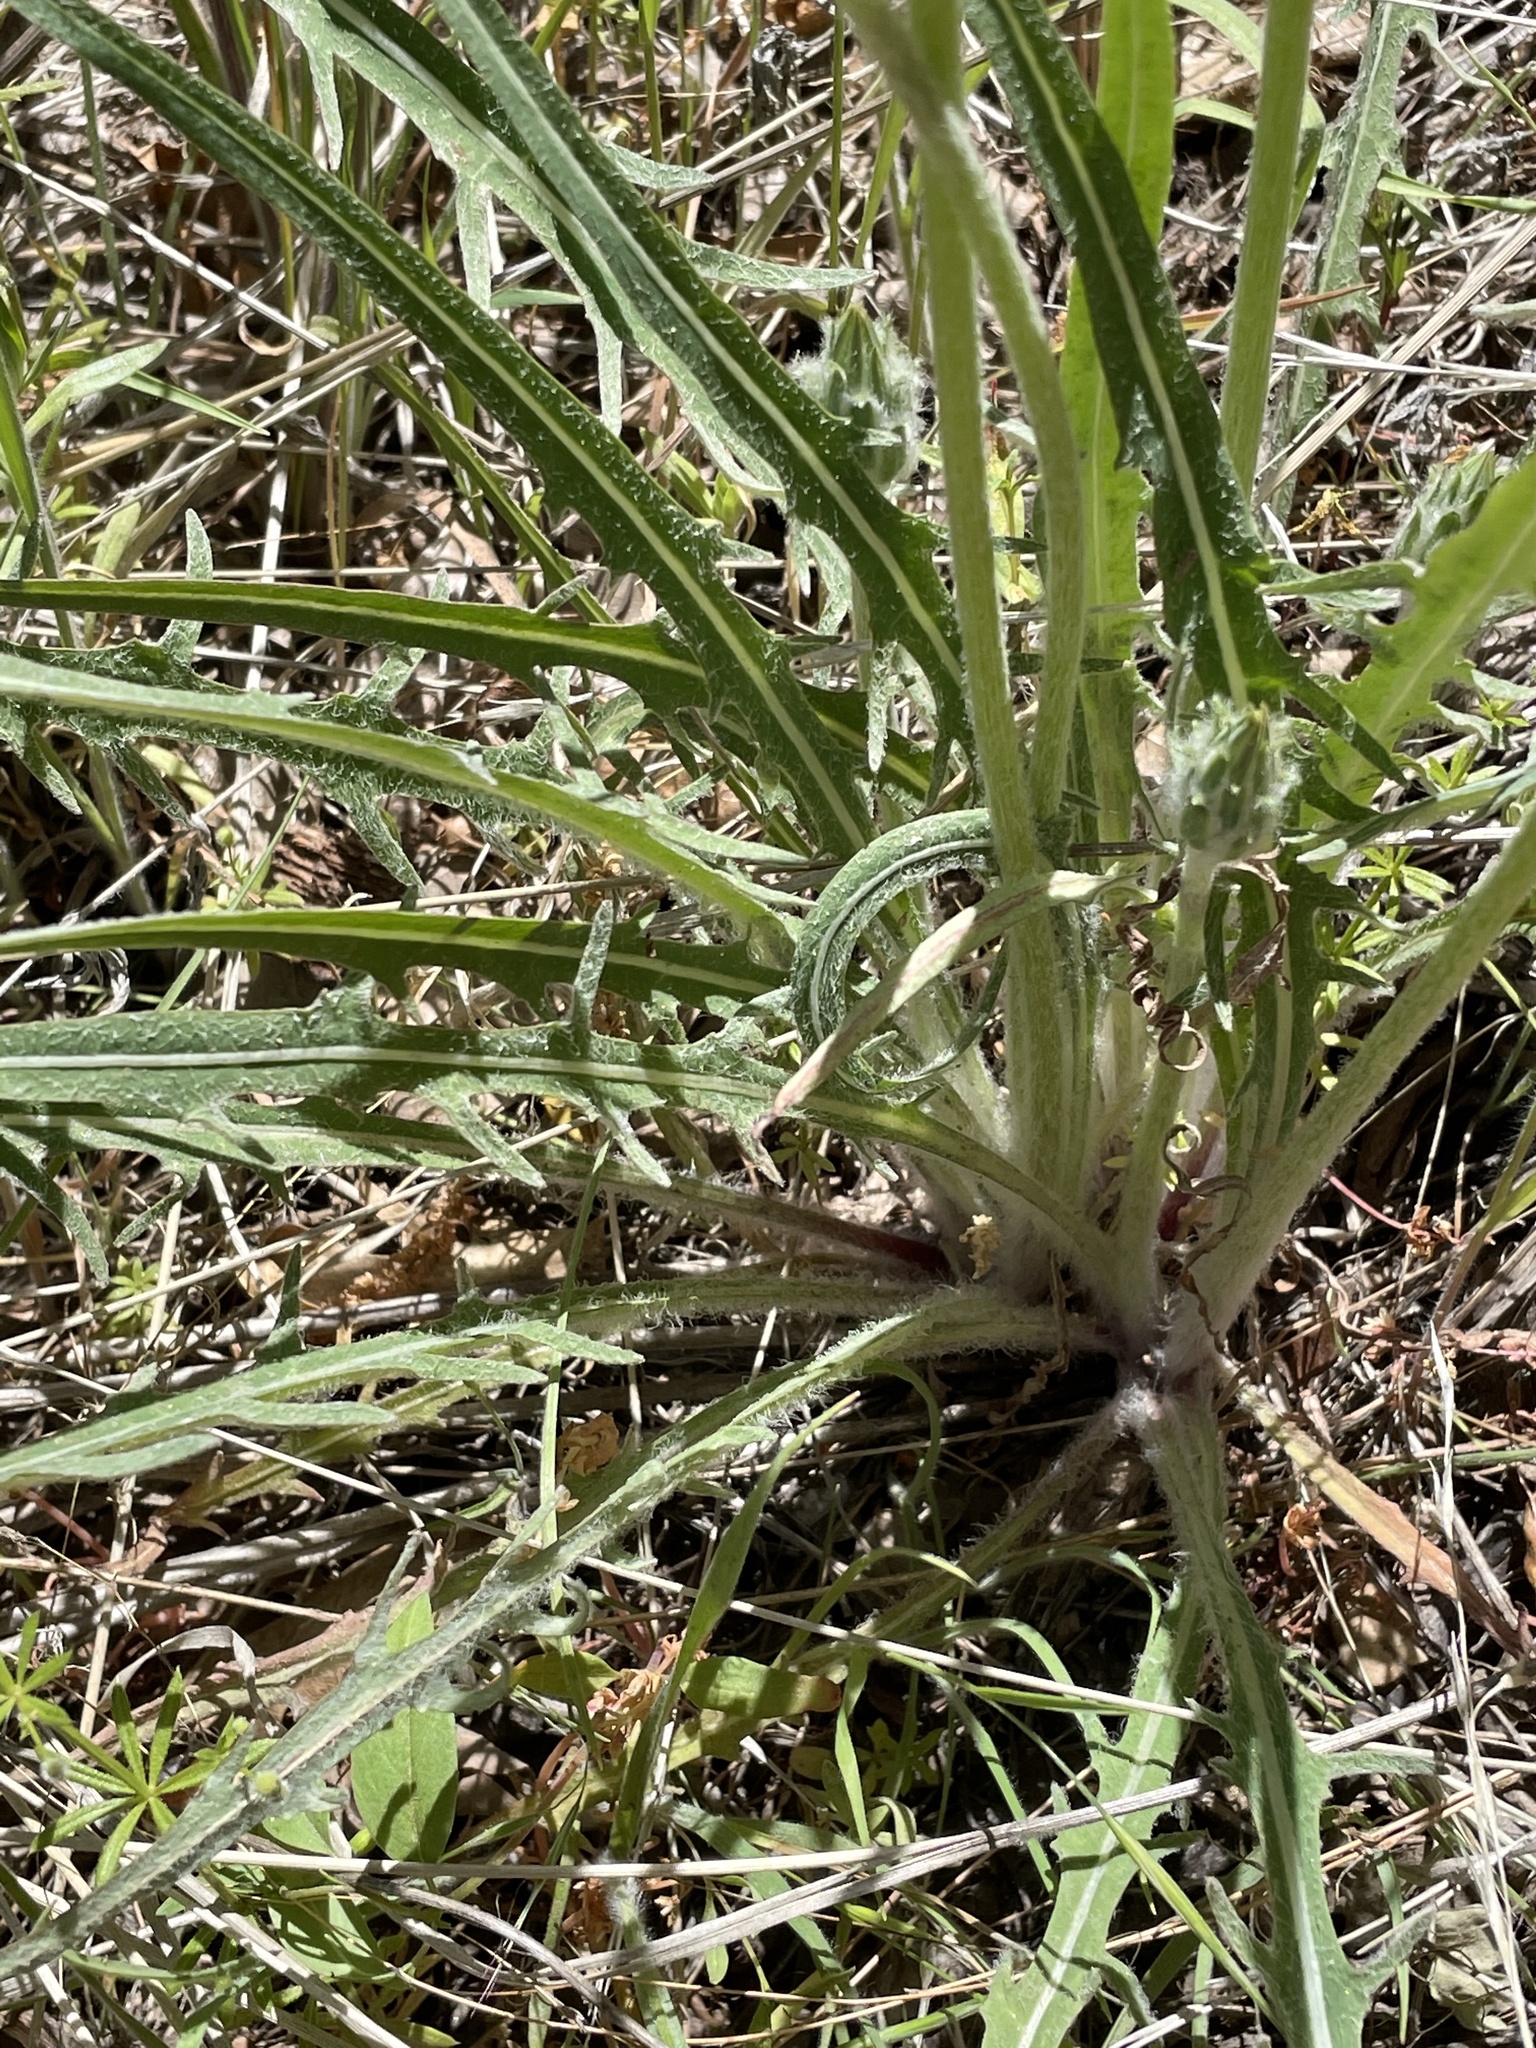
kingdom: Plantae
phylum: Tracheophyta
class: Magnoliopsida
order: Asterales
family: Asteraceae
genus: Agoseris
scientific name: Agoseris retrorsa
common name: Spearleaf agoseris
